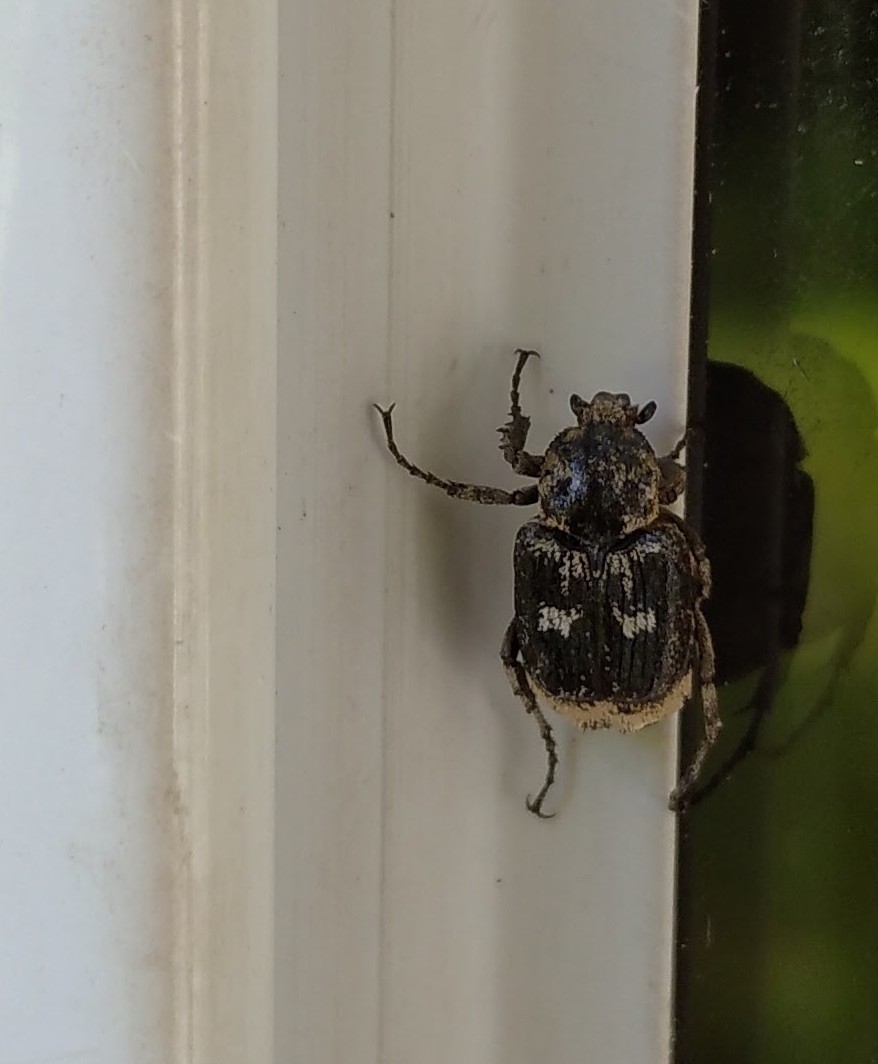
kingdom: Animalia
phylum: Arthropoda
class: Insecta
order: Coleoptera
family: Scarabaeidae
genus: Valgus
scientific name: Valgus hemipterus
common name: Bug flower chafer
